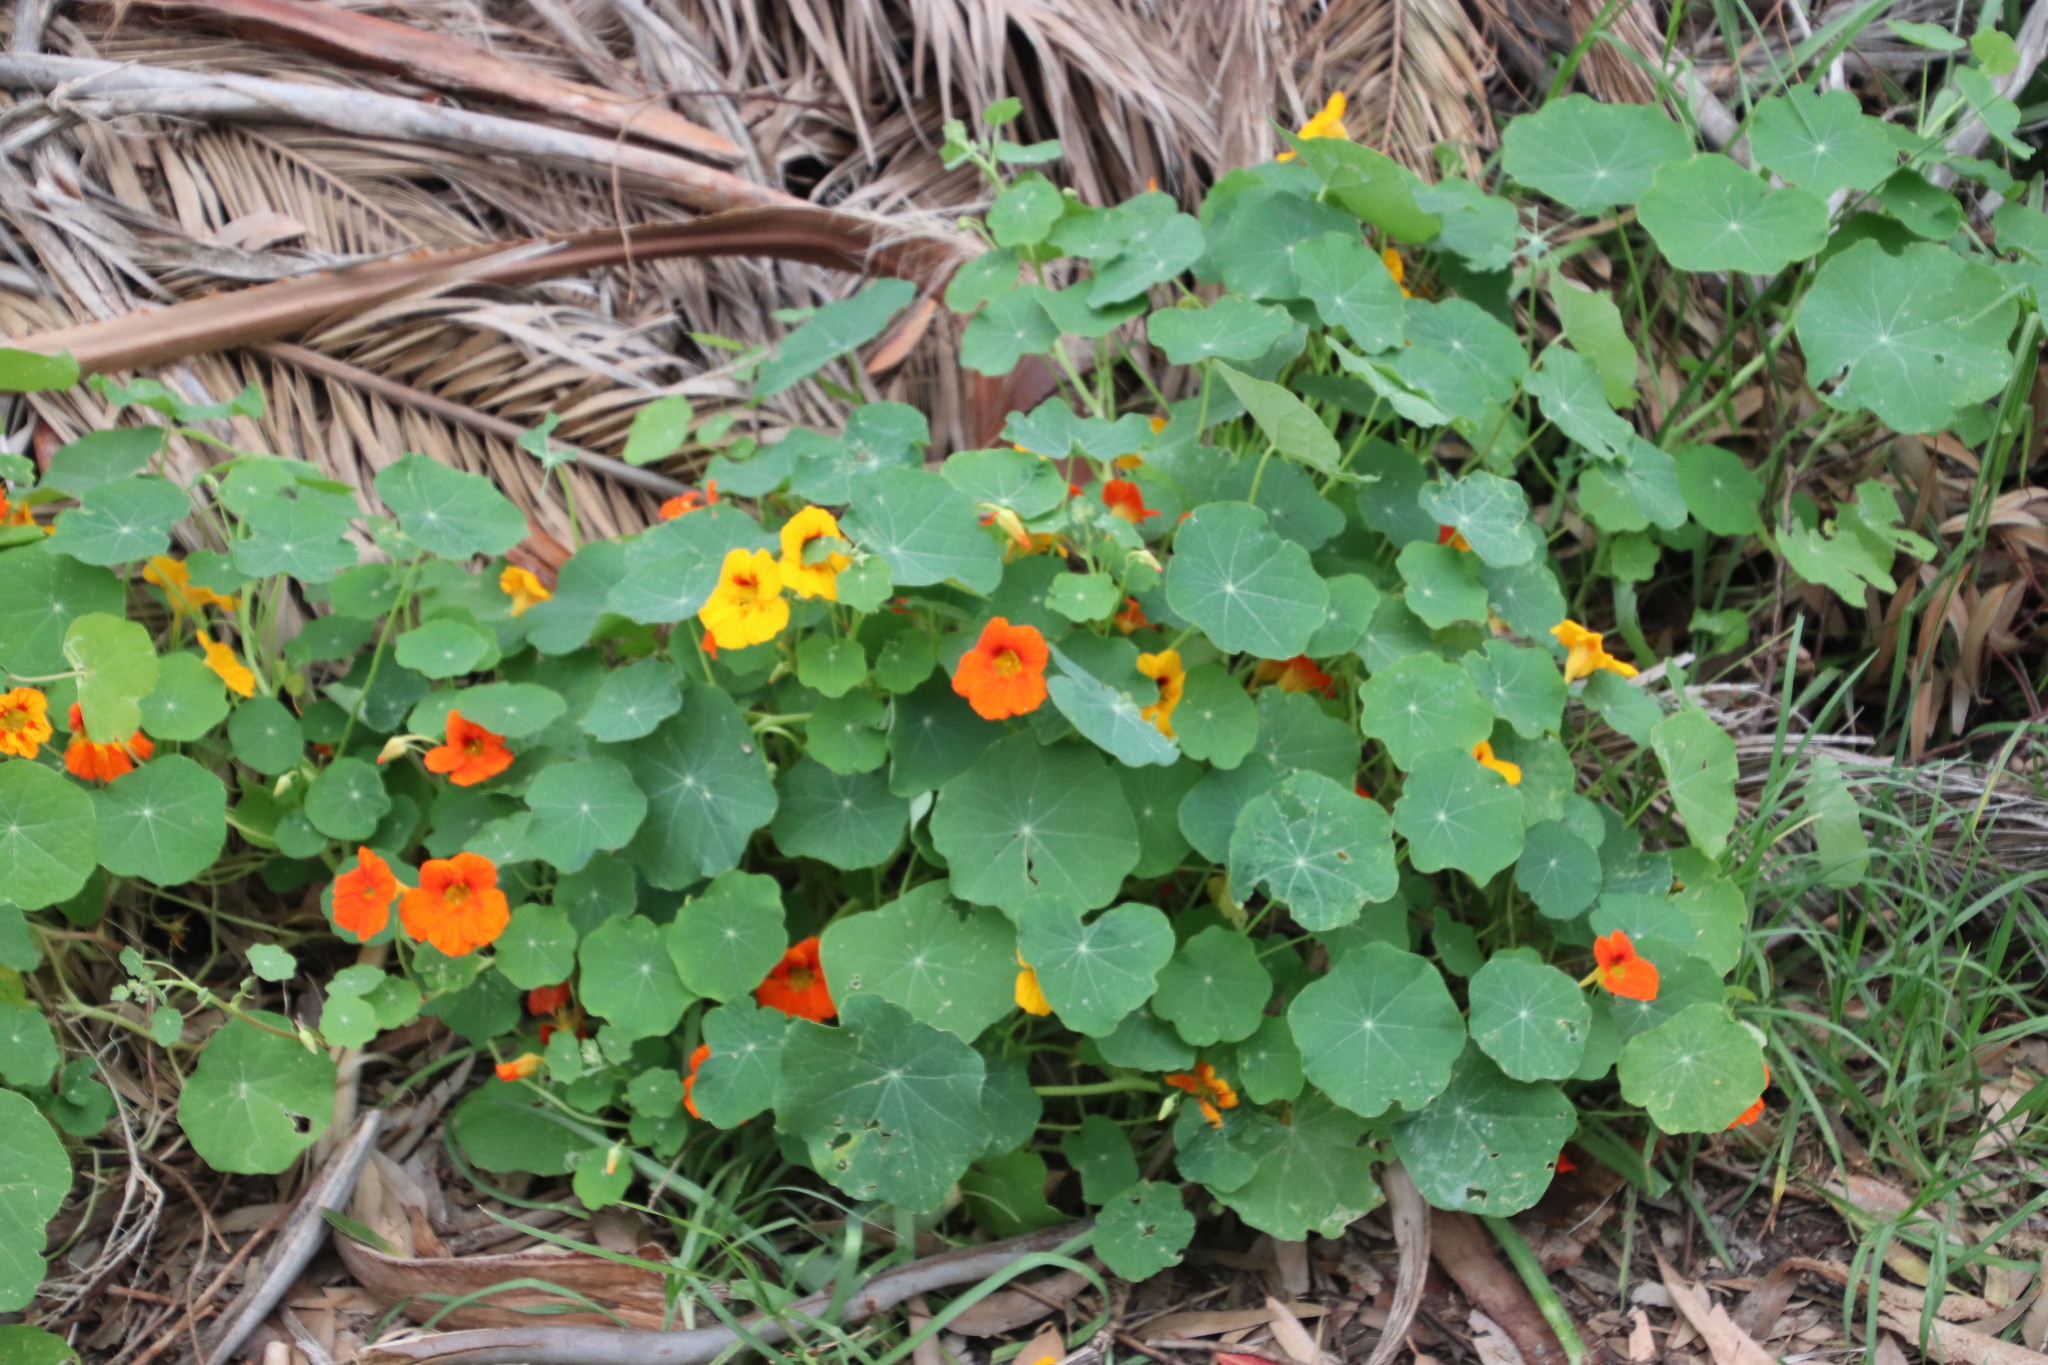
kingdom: Plantae
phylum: Tracheophyta
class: Magnoliopsida
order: Brassicales
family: Tropaeolaceae
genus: Tropaeolum
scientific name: Tropaeolum majus
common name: Nasturtium
